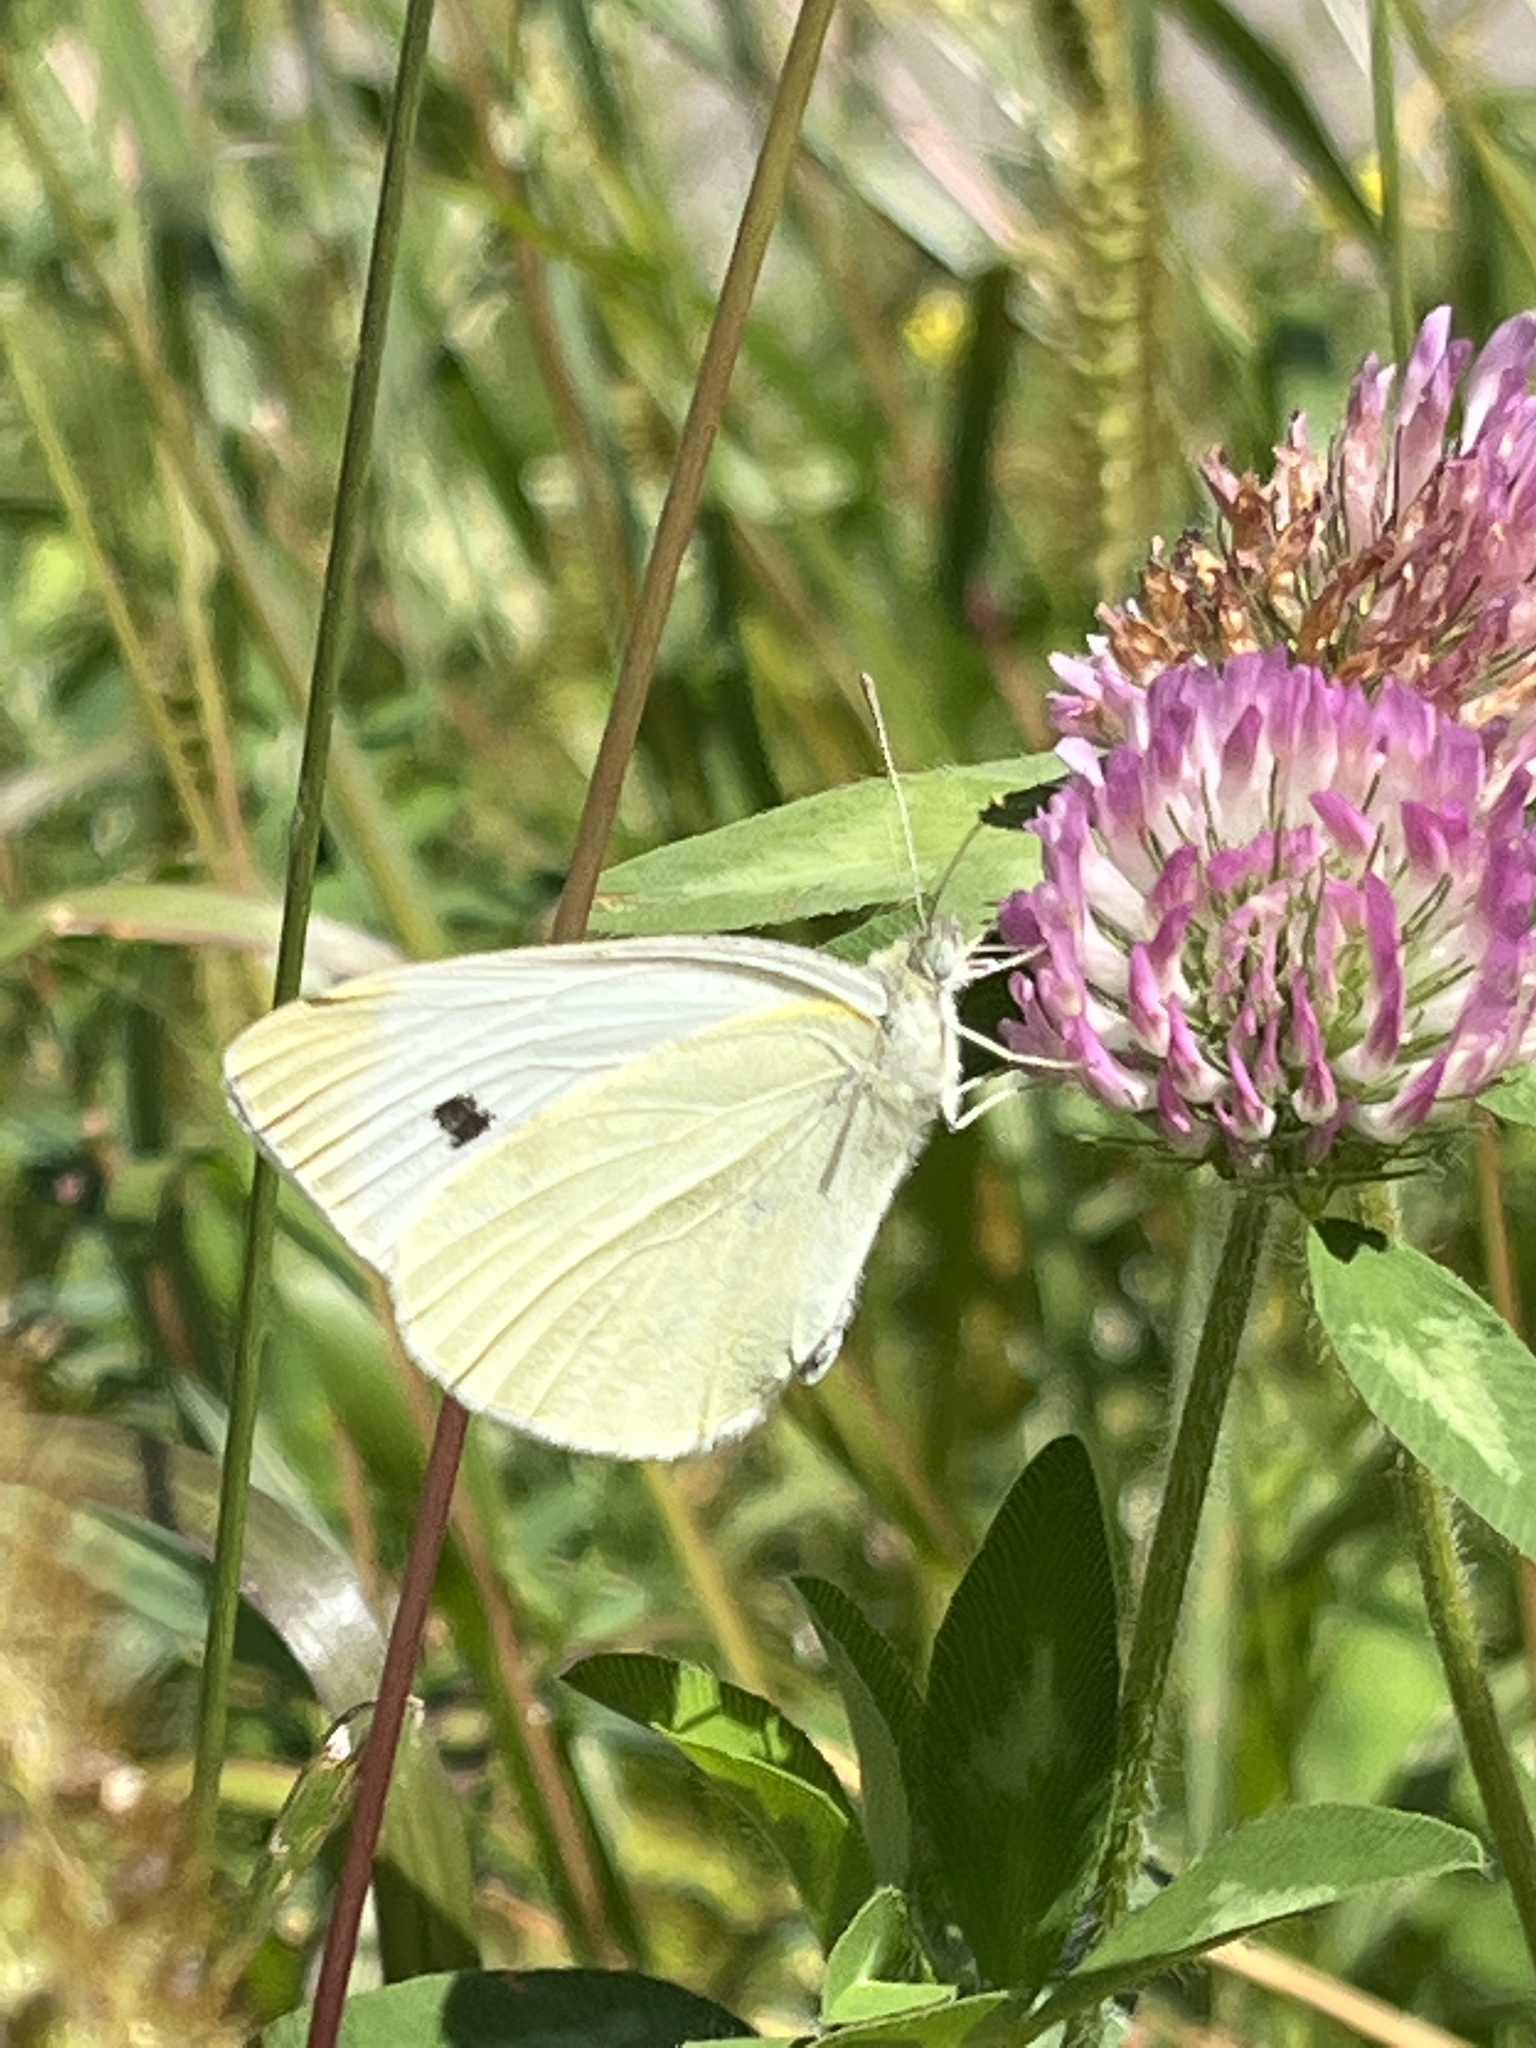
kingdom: Animalia
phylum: Arthropoda
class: Insecta
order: Lepidoptera
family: Pieridae
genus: Pieris
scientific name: Pieris rapae
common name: Small white
